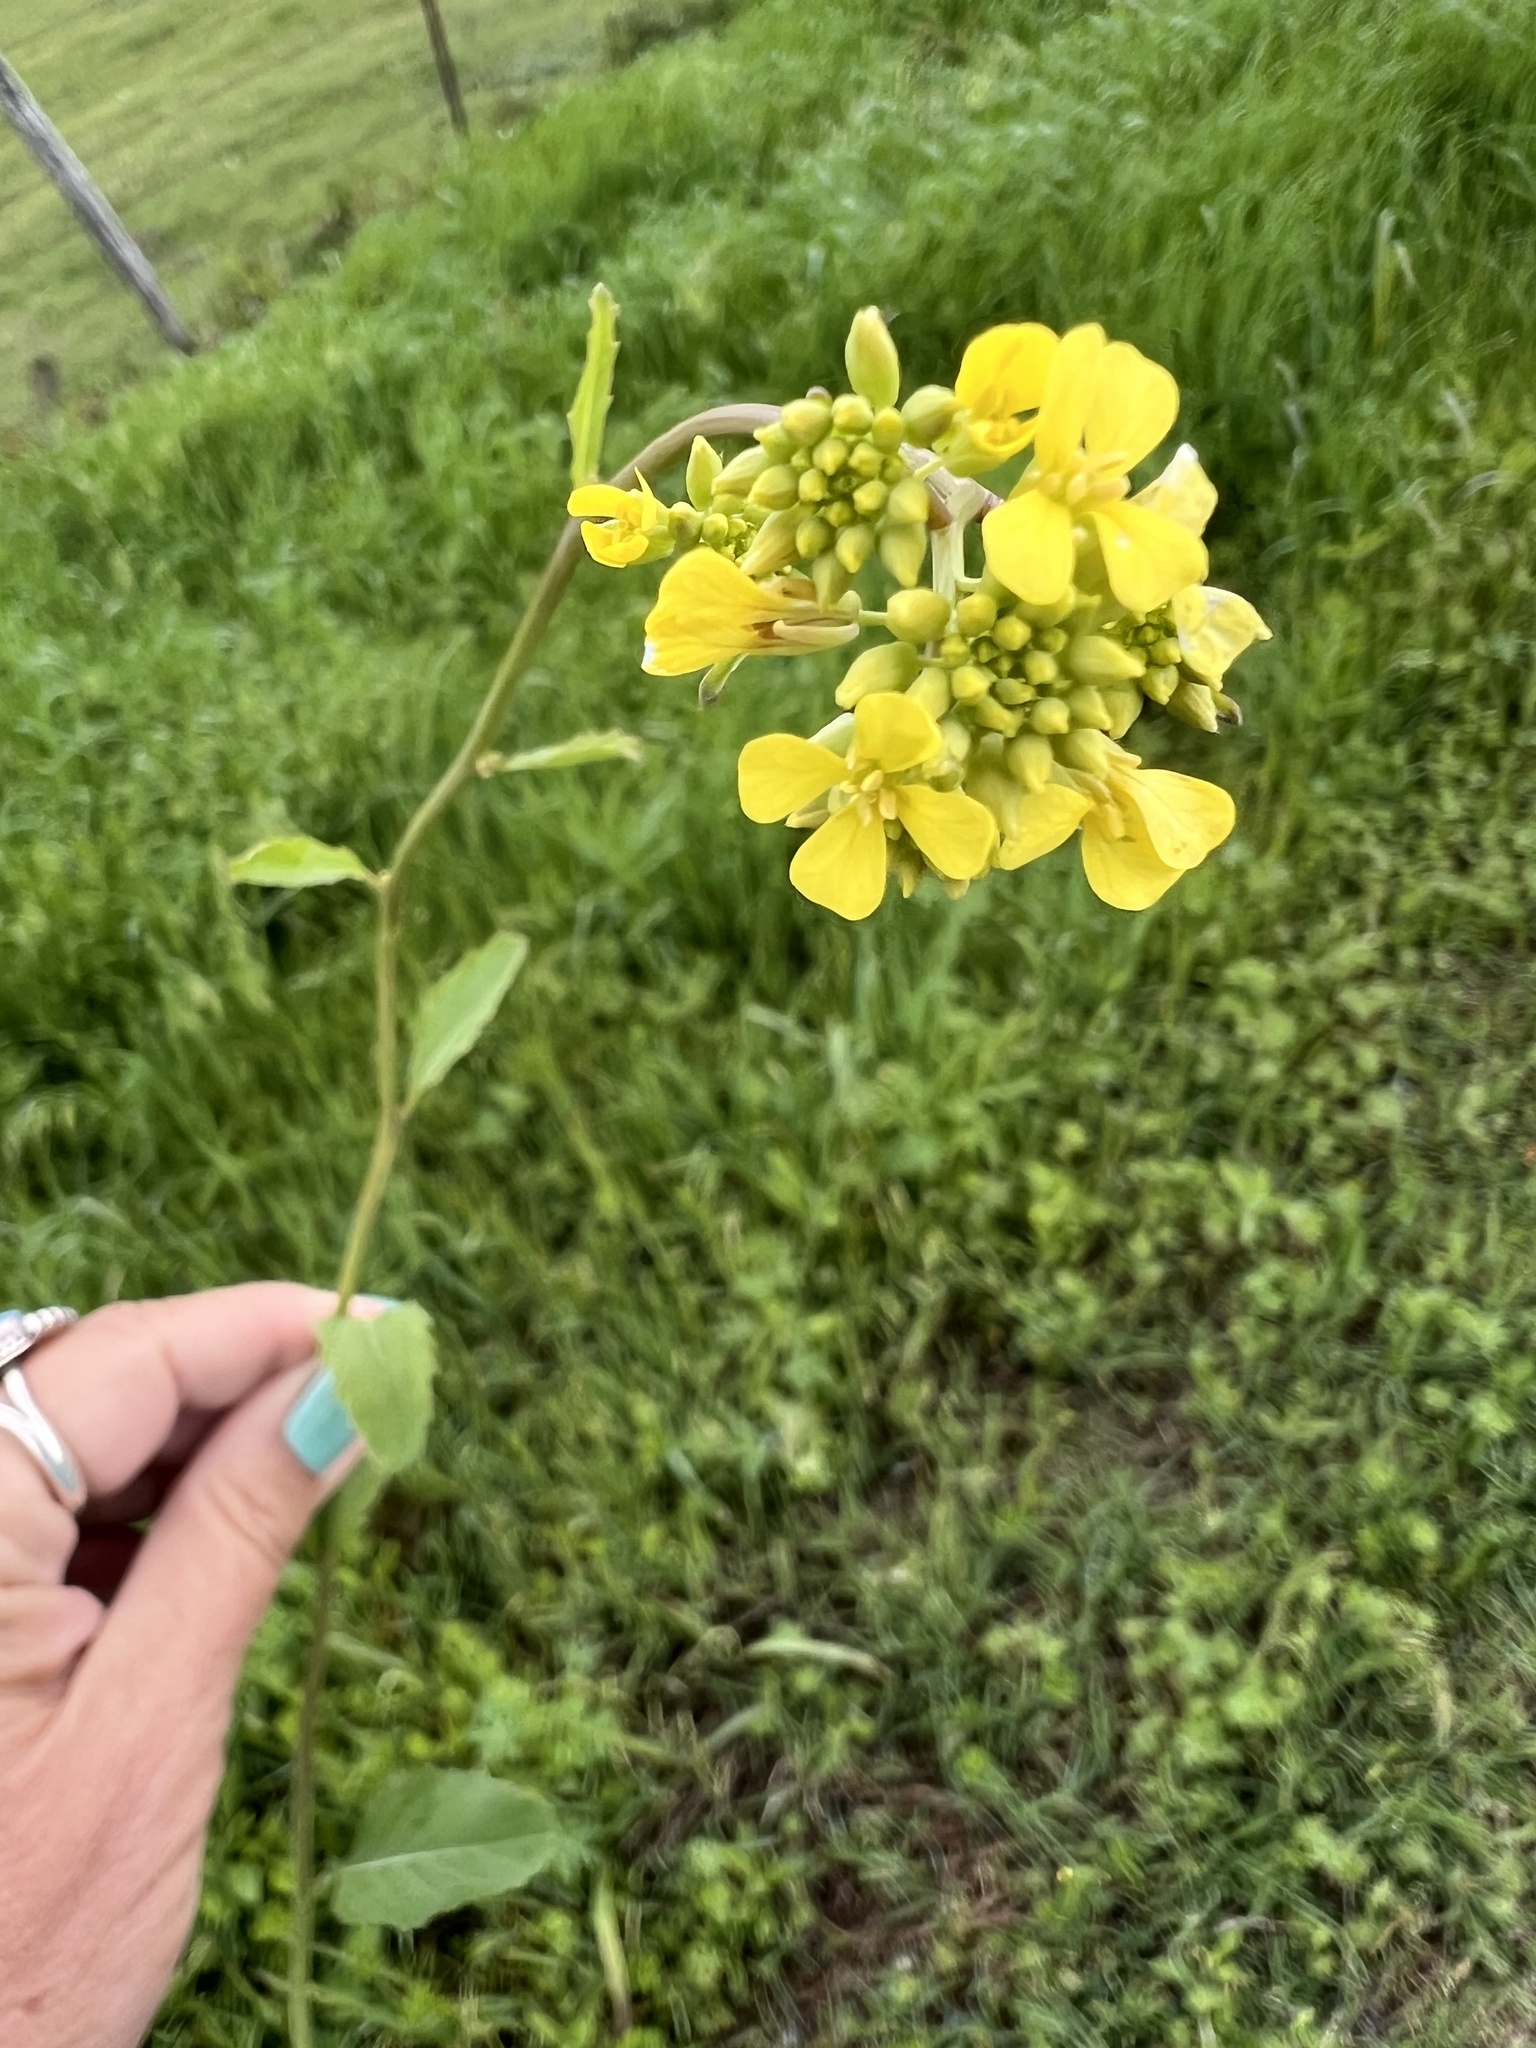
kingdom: Plantae
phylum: Tracheophyta
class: Magnoliopsida
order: Brassicales
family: Brassicaceae
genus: Rapistrum
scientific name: Rapistrum rugosum
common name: Annual bastardcabbage
